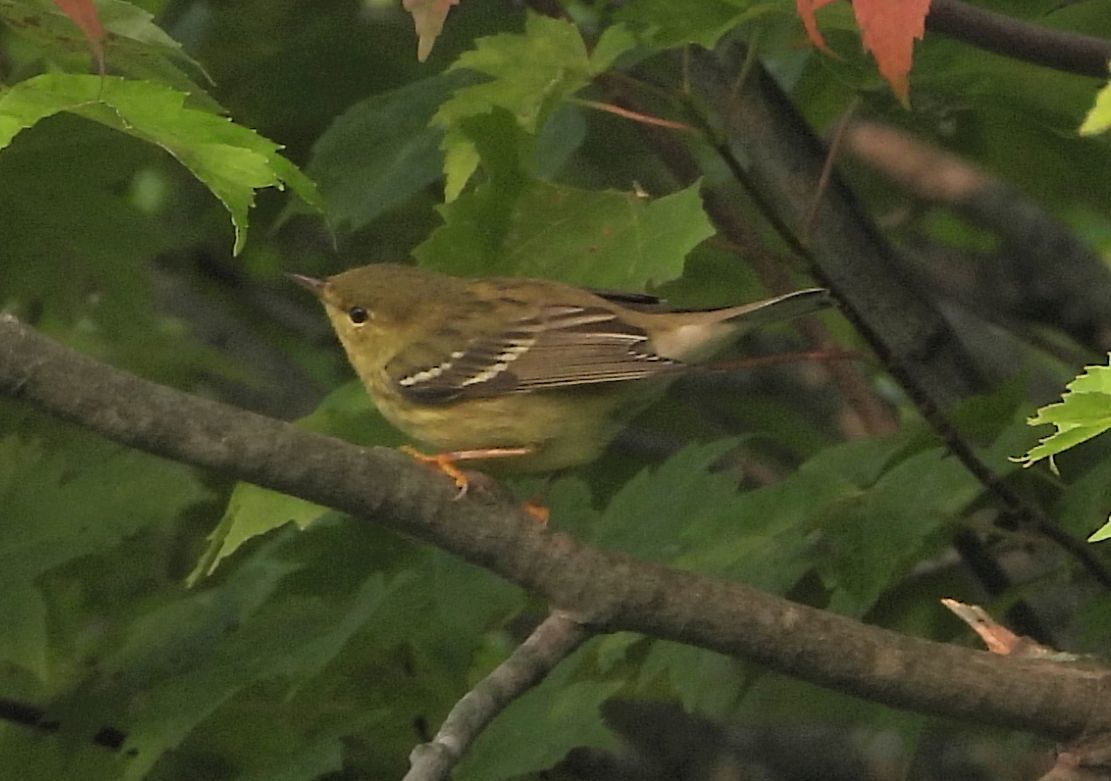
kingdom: Animalia
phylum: Chordata
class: Aves
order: Passeriformes
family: Parulidae
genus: Setophaga
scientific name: Setophaga striata
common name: Blackpoll warbler
